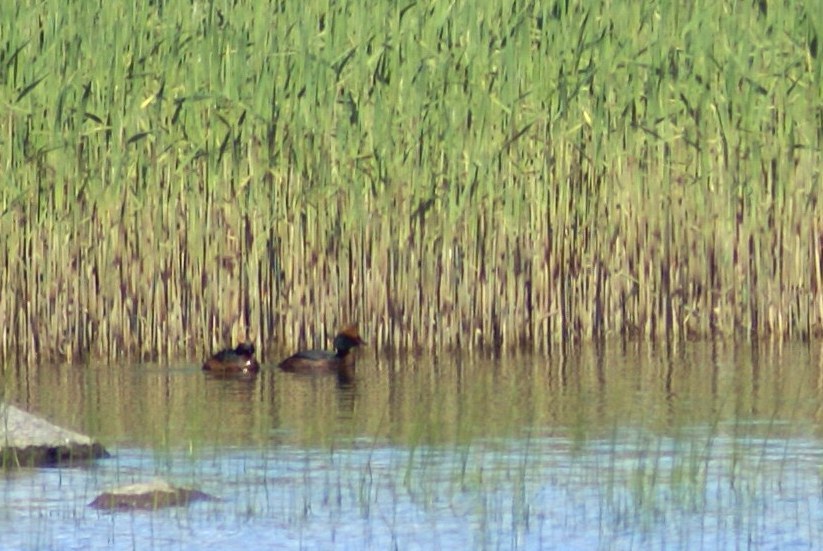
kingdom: Animalia
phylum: Chordata
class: Aves
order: Podicipediformes
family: Podicipedidae
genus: Podiceps
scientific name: Podiceps auritus
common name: Horned grebe
